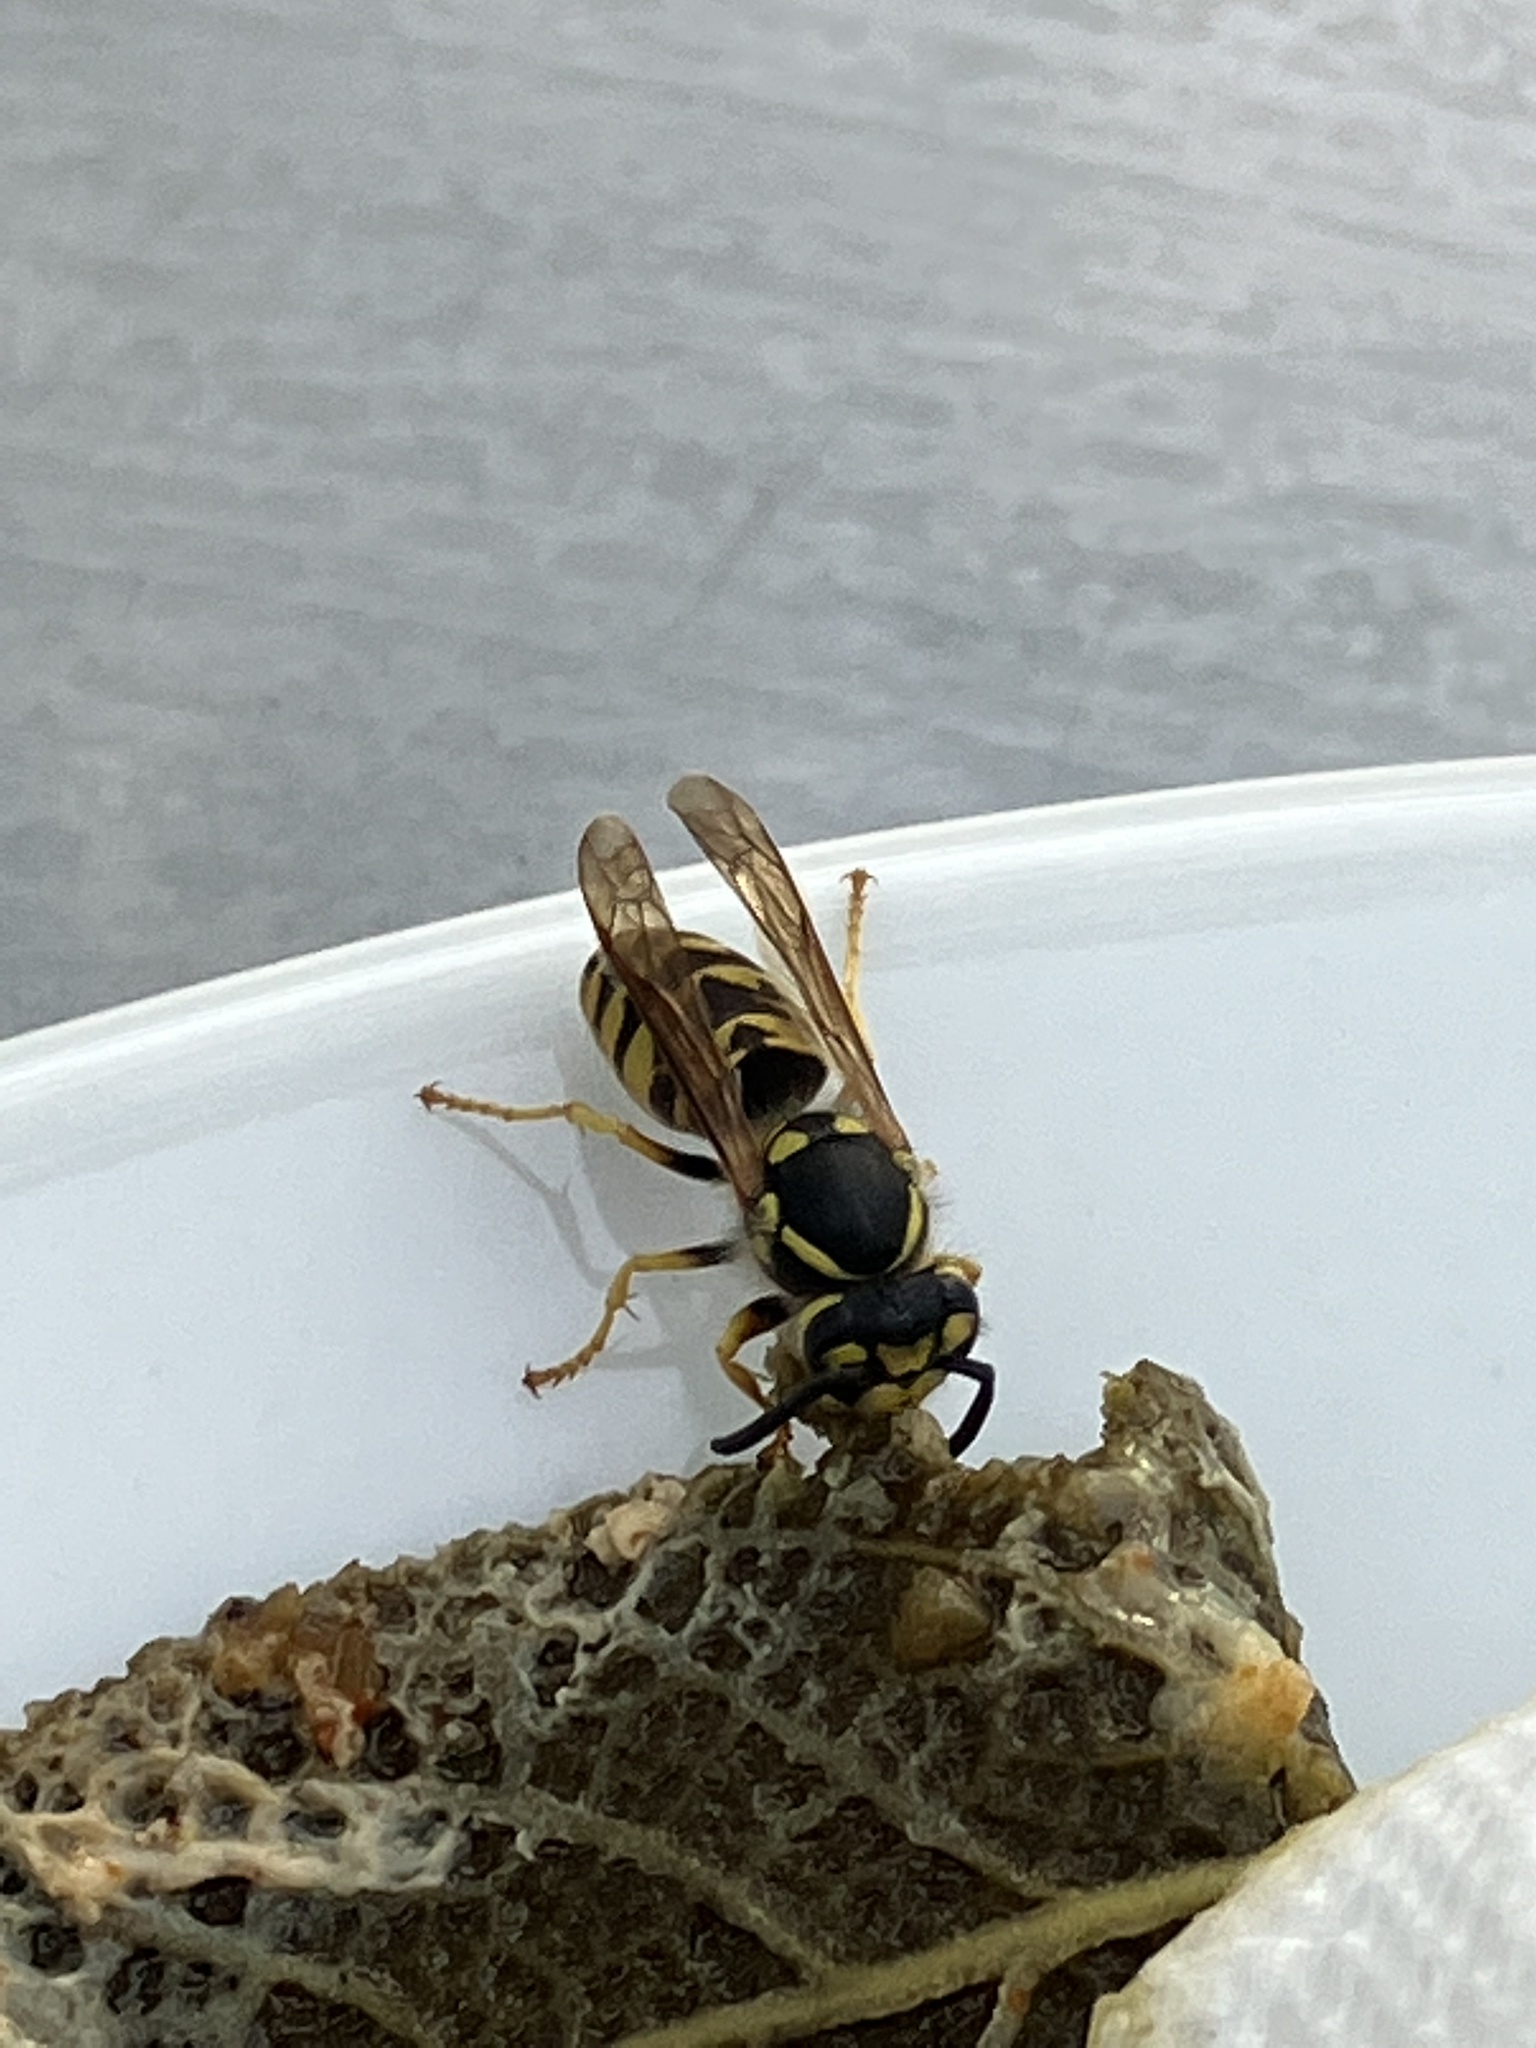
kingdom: Animalia
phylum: Arthropoda
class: Insecta
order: Hymenoptera
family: Vespidae
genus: Vespula
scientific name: Vespula germanica
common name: German wasp
